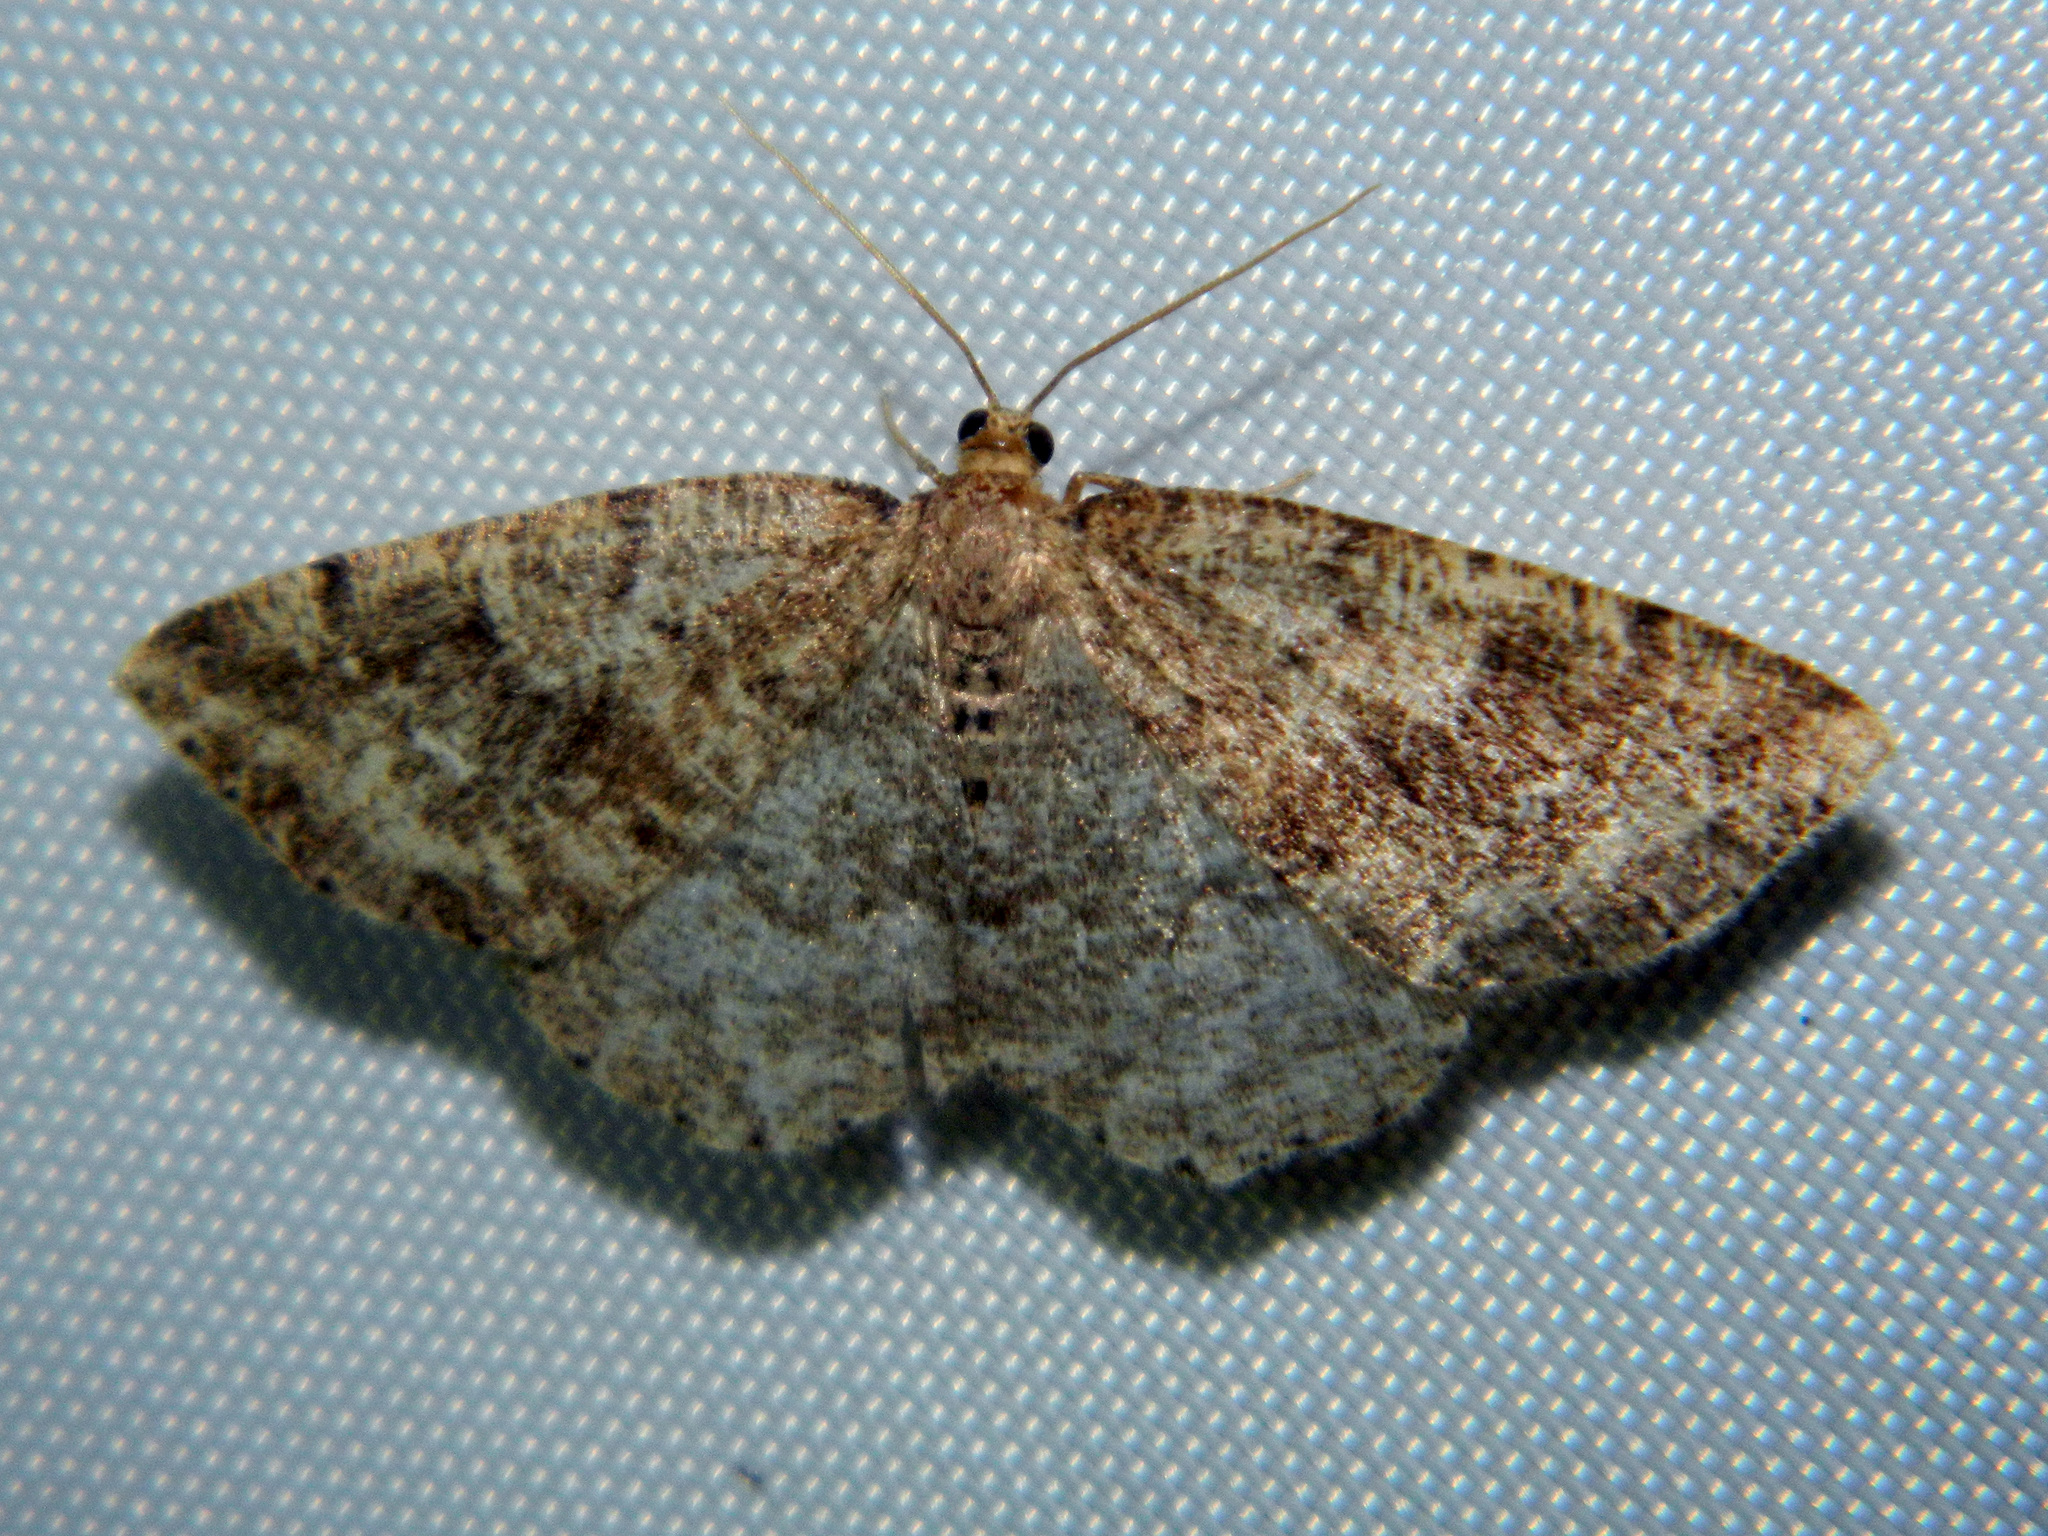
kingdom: Animalia
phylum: Arthropoda
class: Insecta
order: Lepidoptera
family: Geometridae
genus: Homochlodes
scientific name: Homochlodes fritillaria
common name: Pale homochlodes
